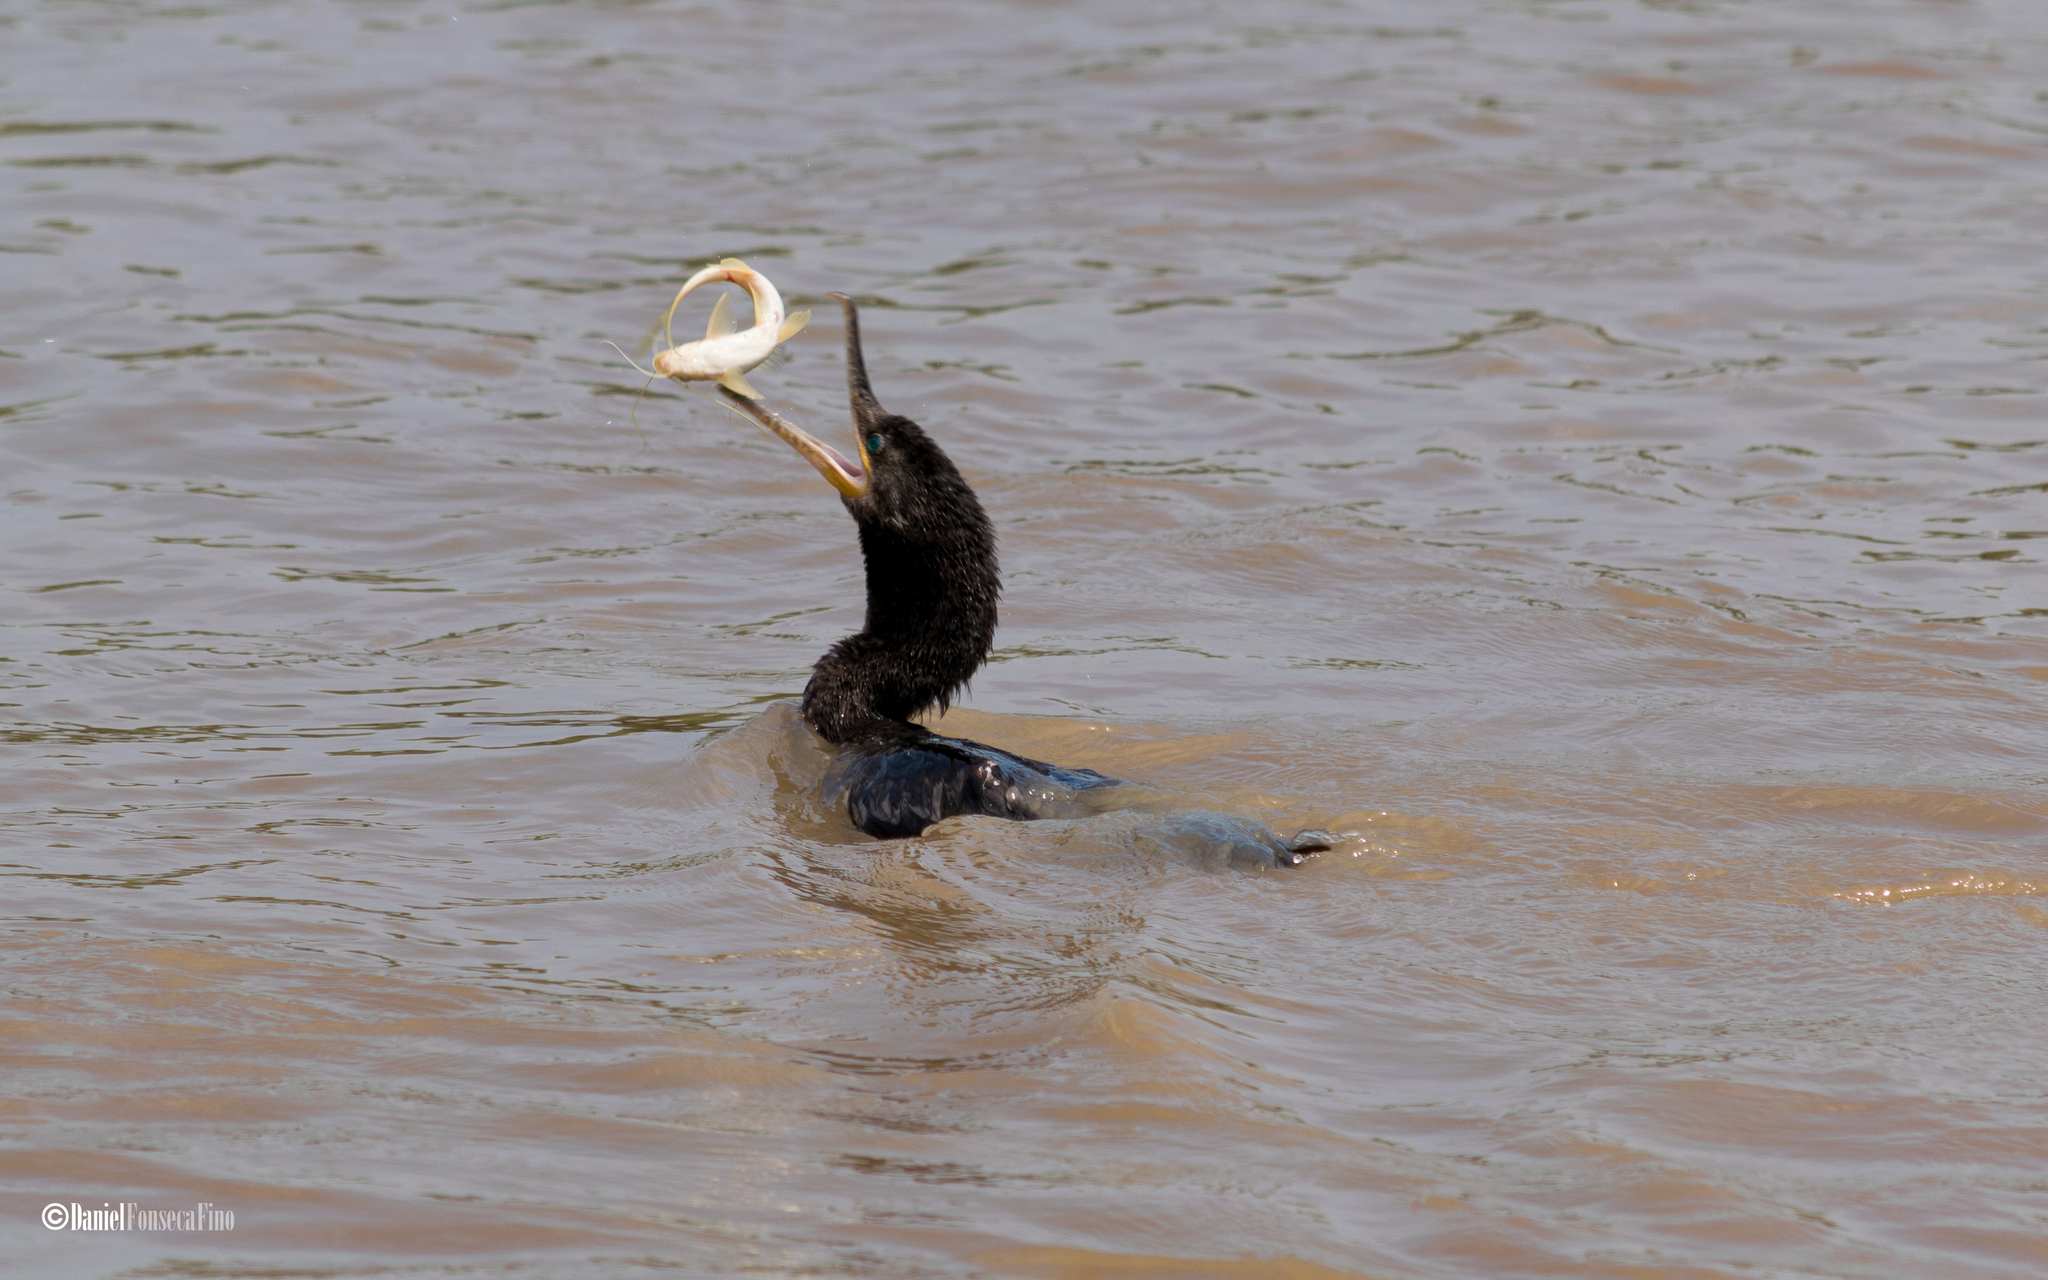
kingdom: Animalia
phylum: Chordata
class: Aves
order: Suliformes
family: Phalacrocoracidae
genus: Phalacrocorax
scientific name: Phalacrocorax brasilianus
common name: Neotropic cormorant
